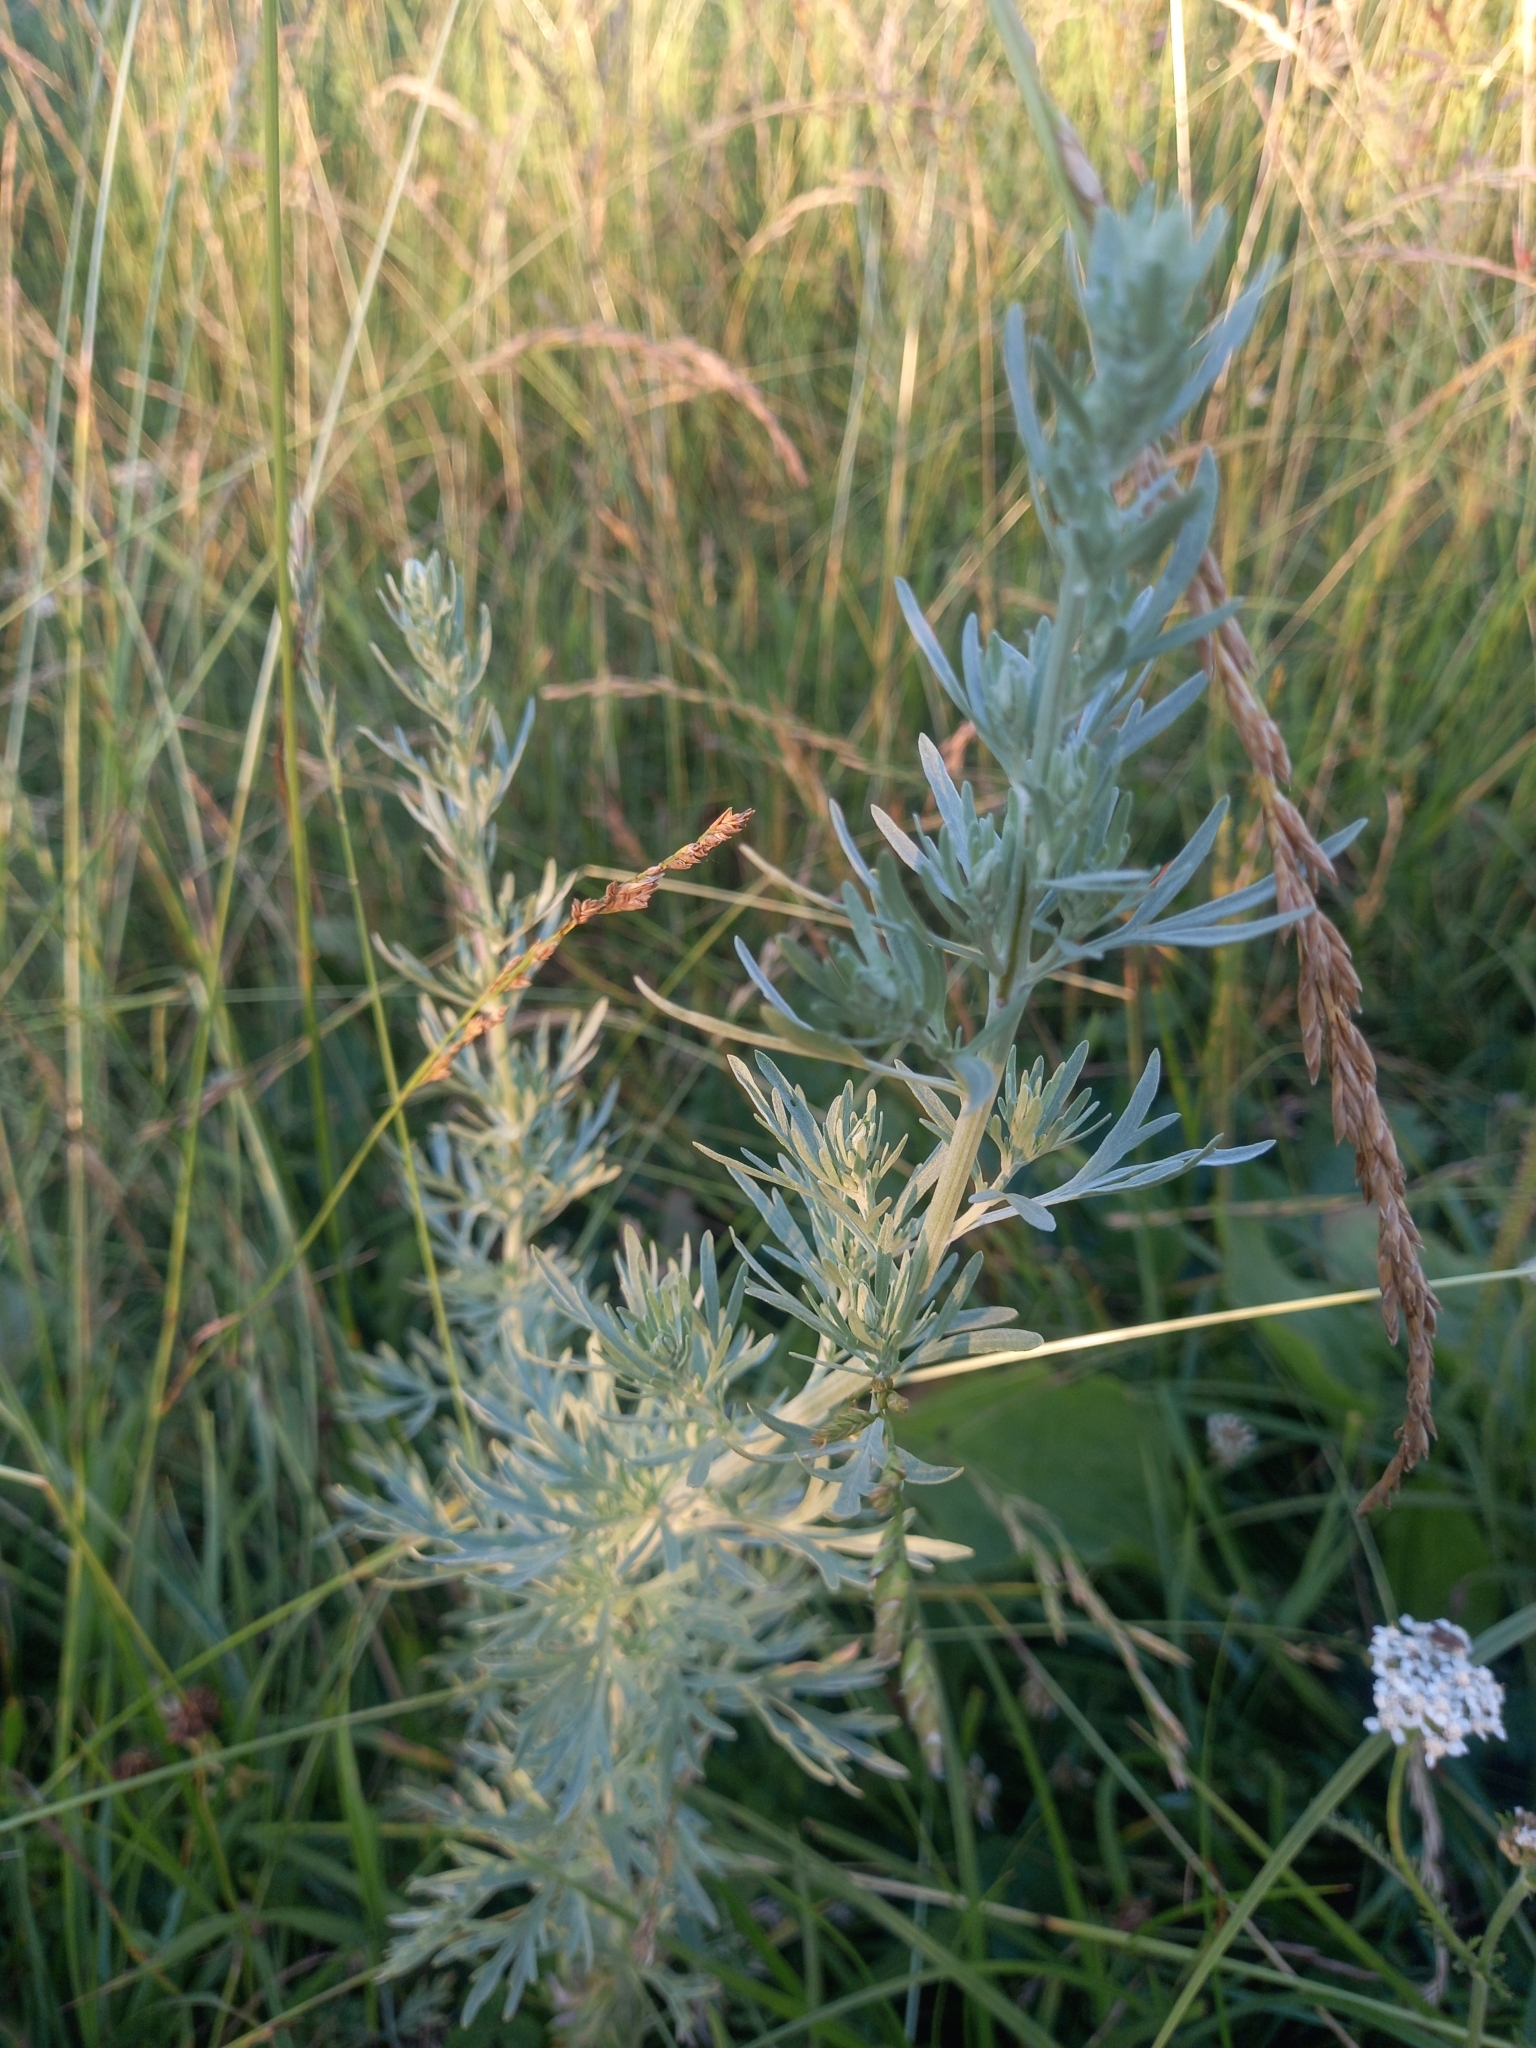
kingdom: Plantae
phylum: Tracheophyta
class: Magnoliopsida
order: Asterales
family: Asteraceae
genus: Artemisia
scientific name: Artemisia absinthium
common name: Wormwood
